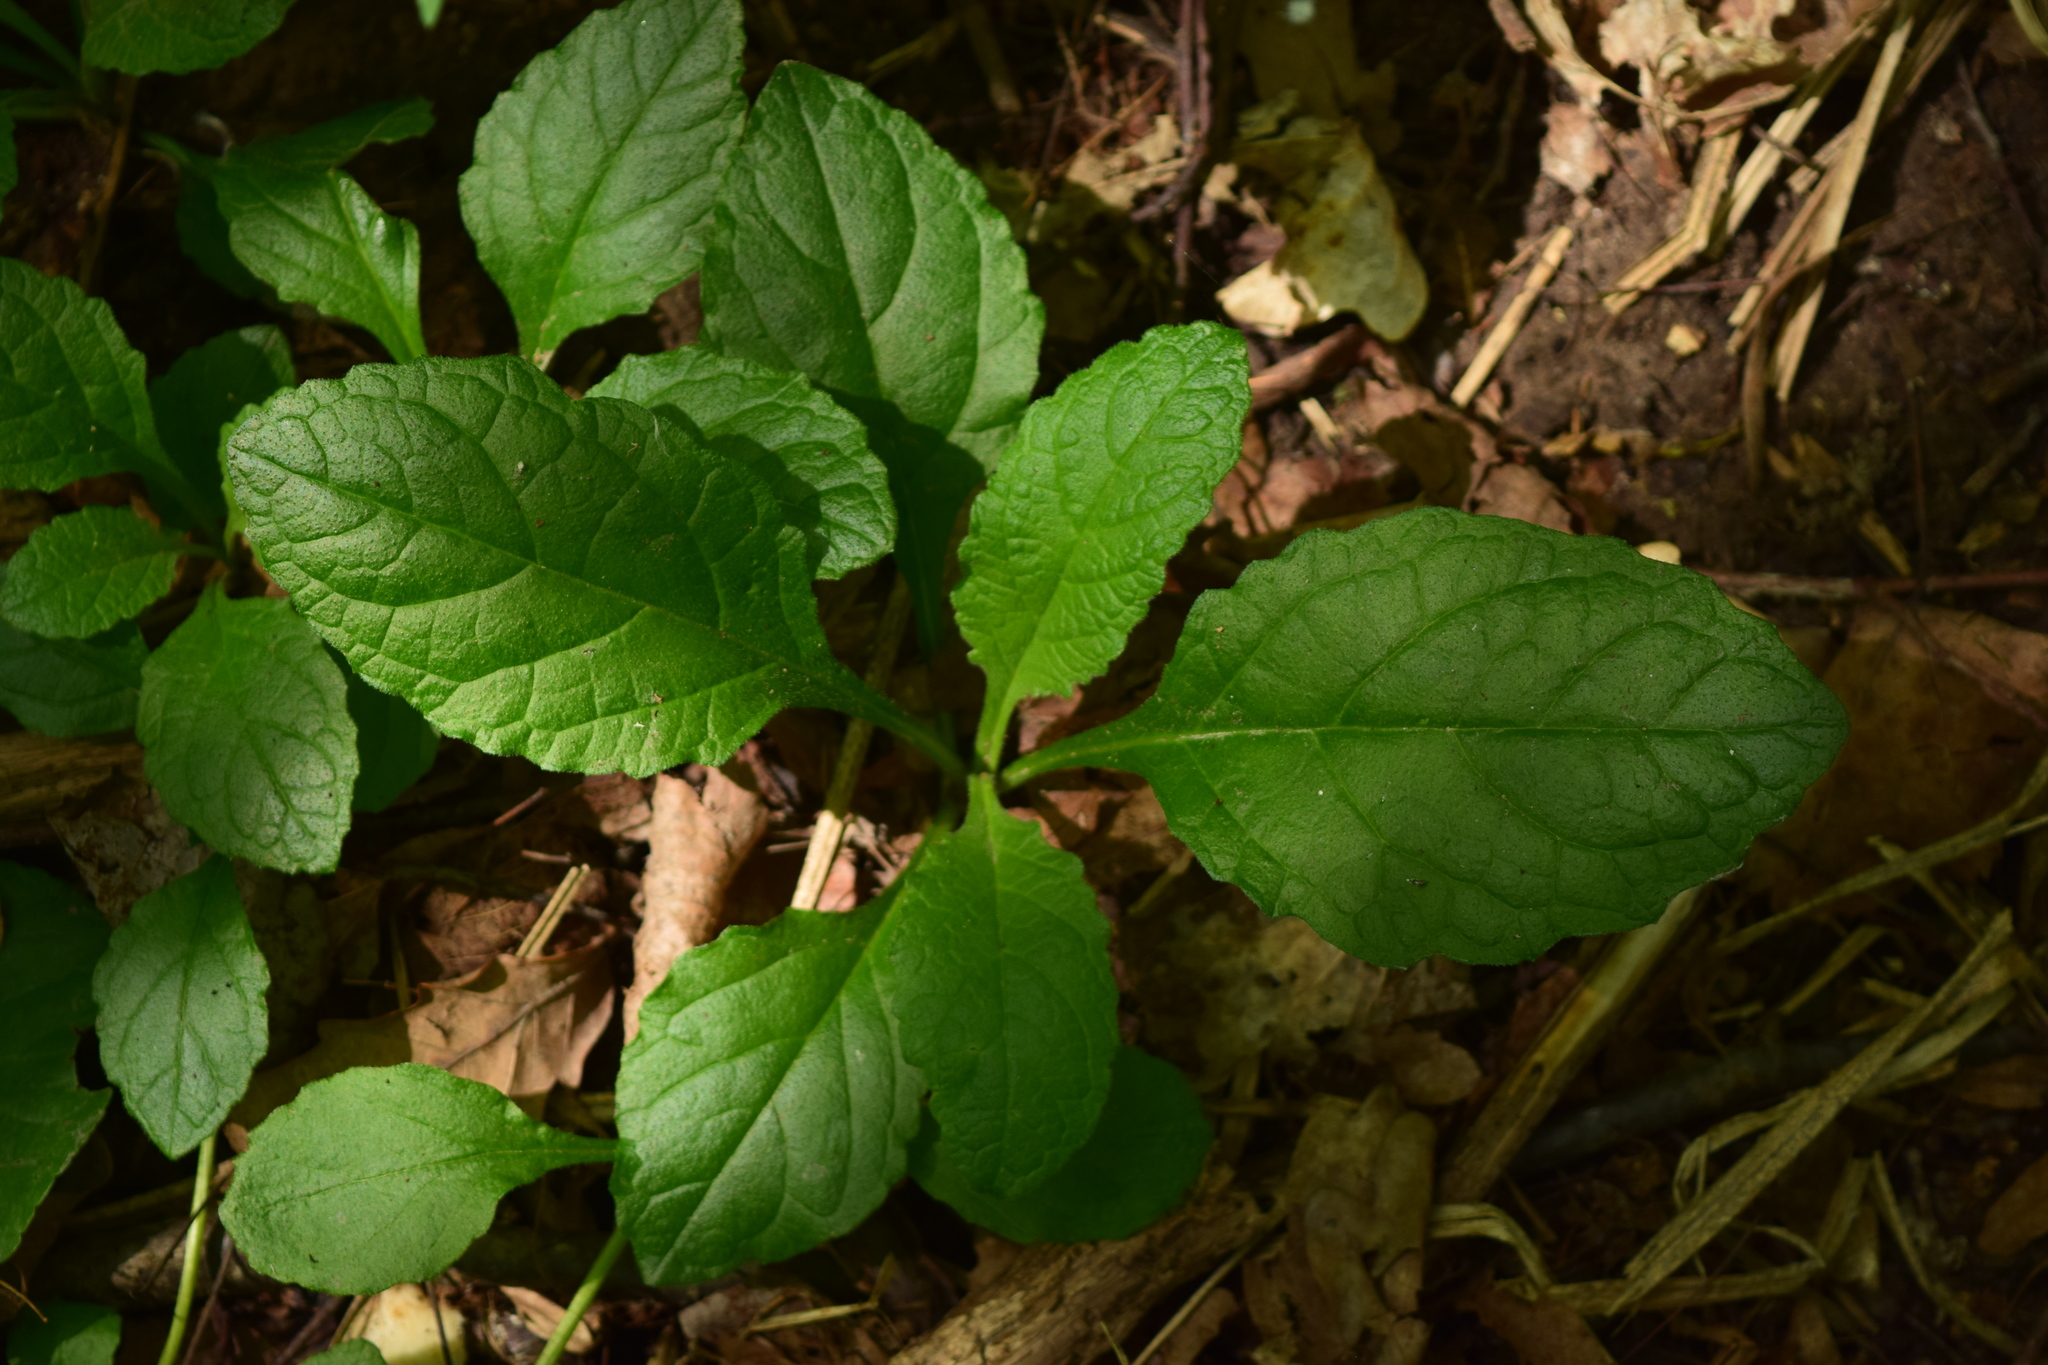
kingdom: Plantae
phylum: Tracheophyta
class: Magnoliopsida
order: Lamiales
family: Lamiaceae
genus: Ajuga
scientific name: Ajuga reptans
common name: Bugle
